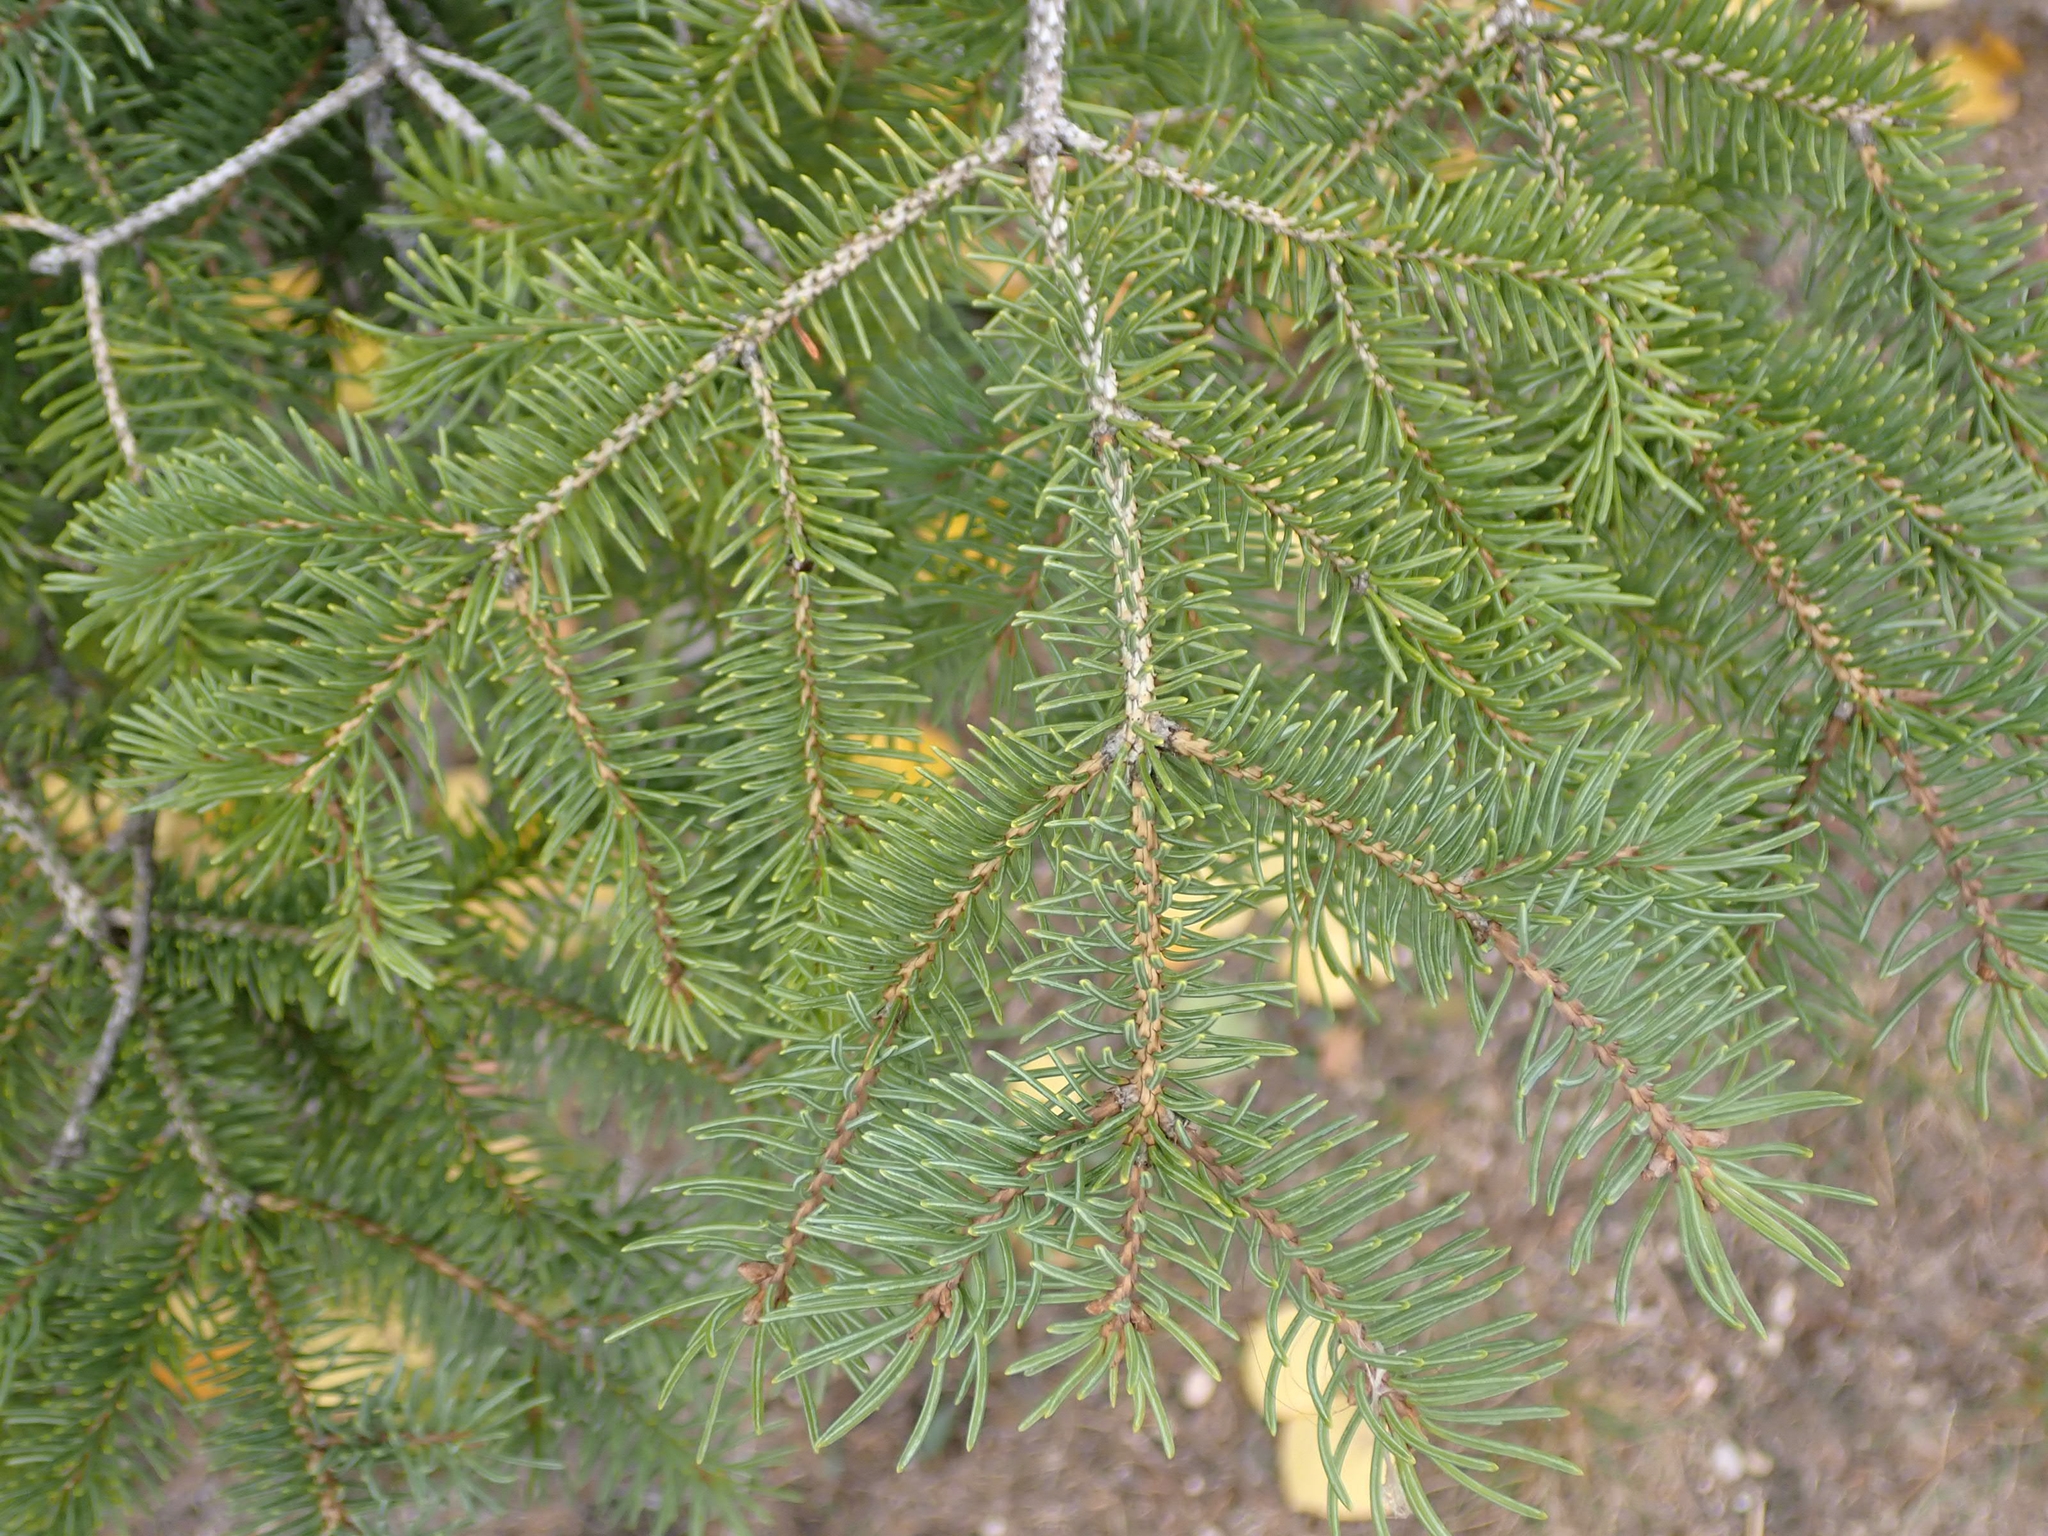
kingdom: Plantae
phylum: Tracheophyta
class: Pinopsida
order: Pinales
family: Pinaceae
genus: Picea
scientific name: Picea glauca
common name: White spruce
